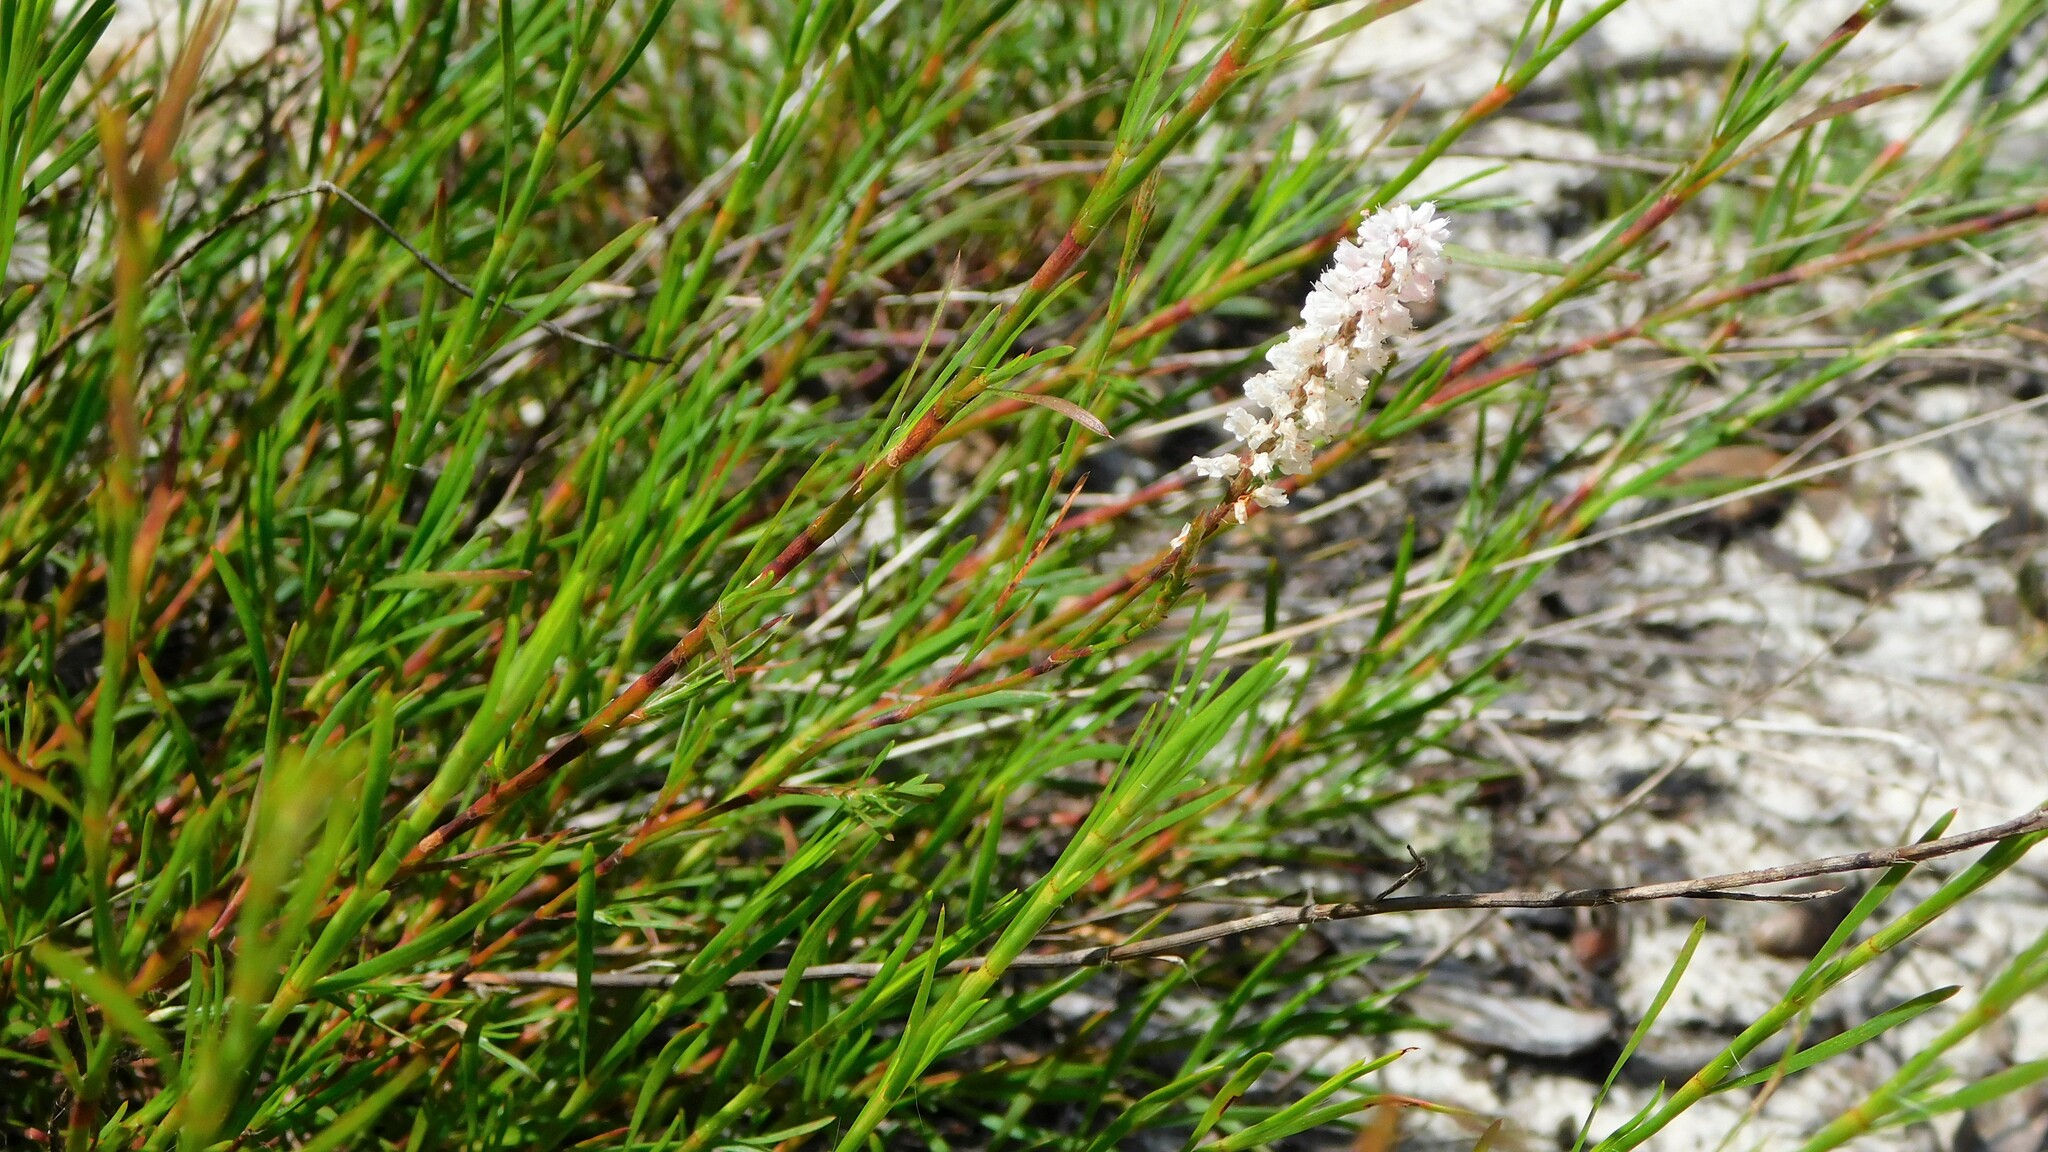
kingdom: Plantae
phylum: Tracheophyta
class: Magnoliopsida
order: Caryophyllales
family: Polygonaceae
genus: Polygonella
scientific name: Polygonella robusta
